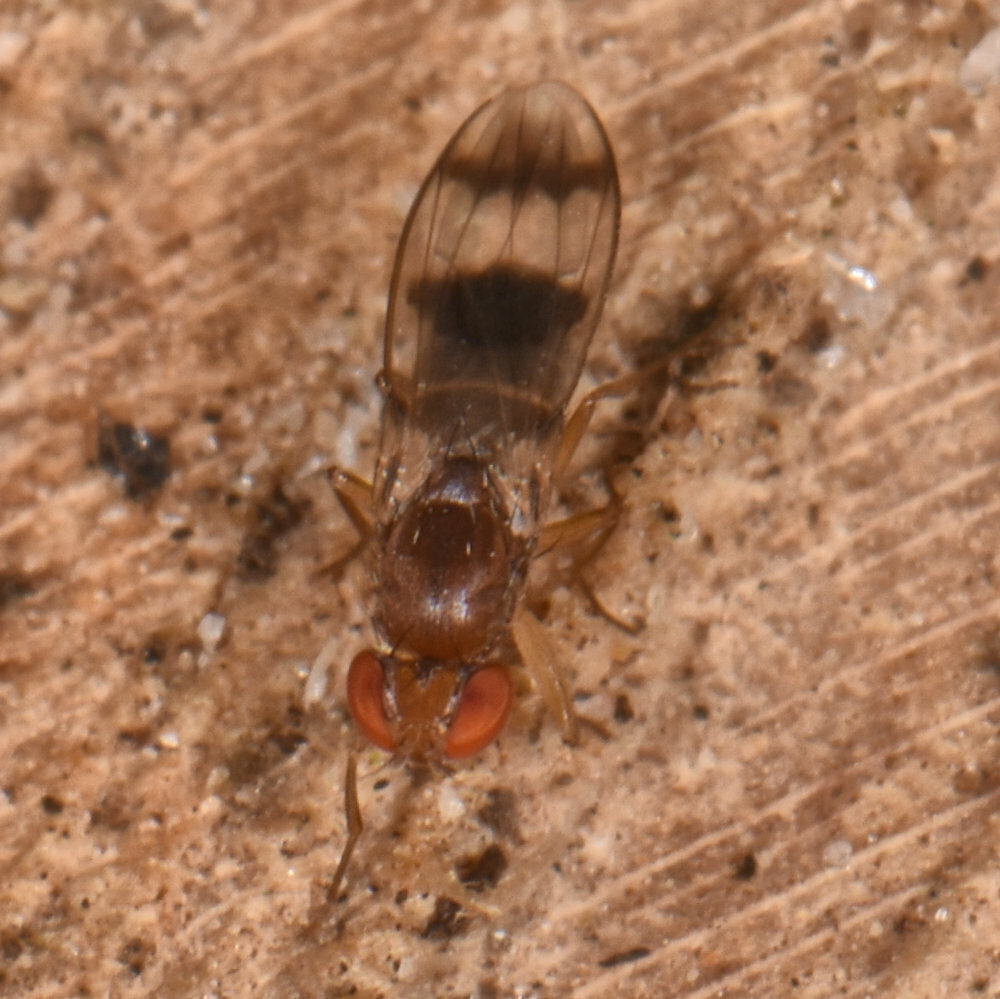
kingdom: Animalia
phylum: Arthropoda
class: Insecta
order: Diptera
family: Drosophilidae
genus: Chymomyza
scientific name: Chymomyza amoena
